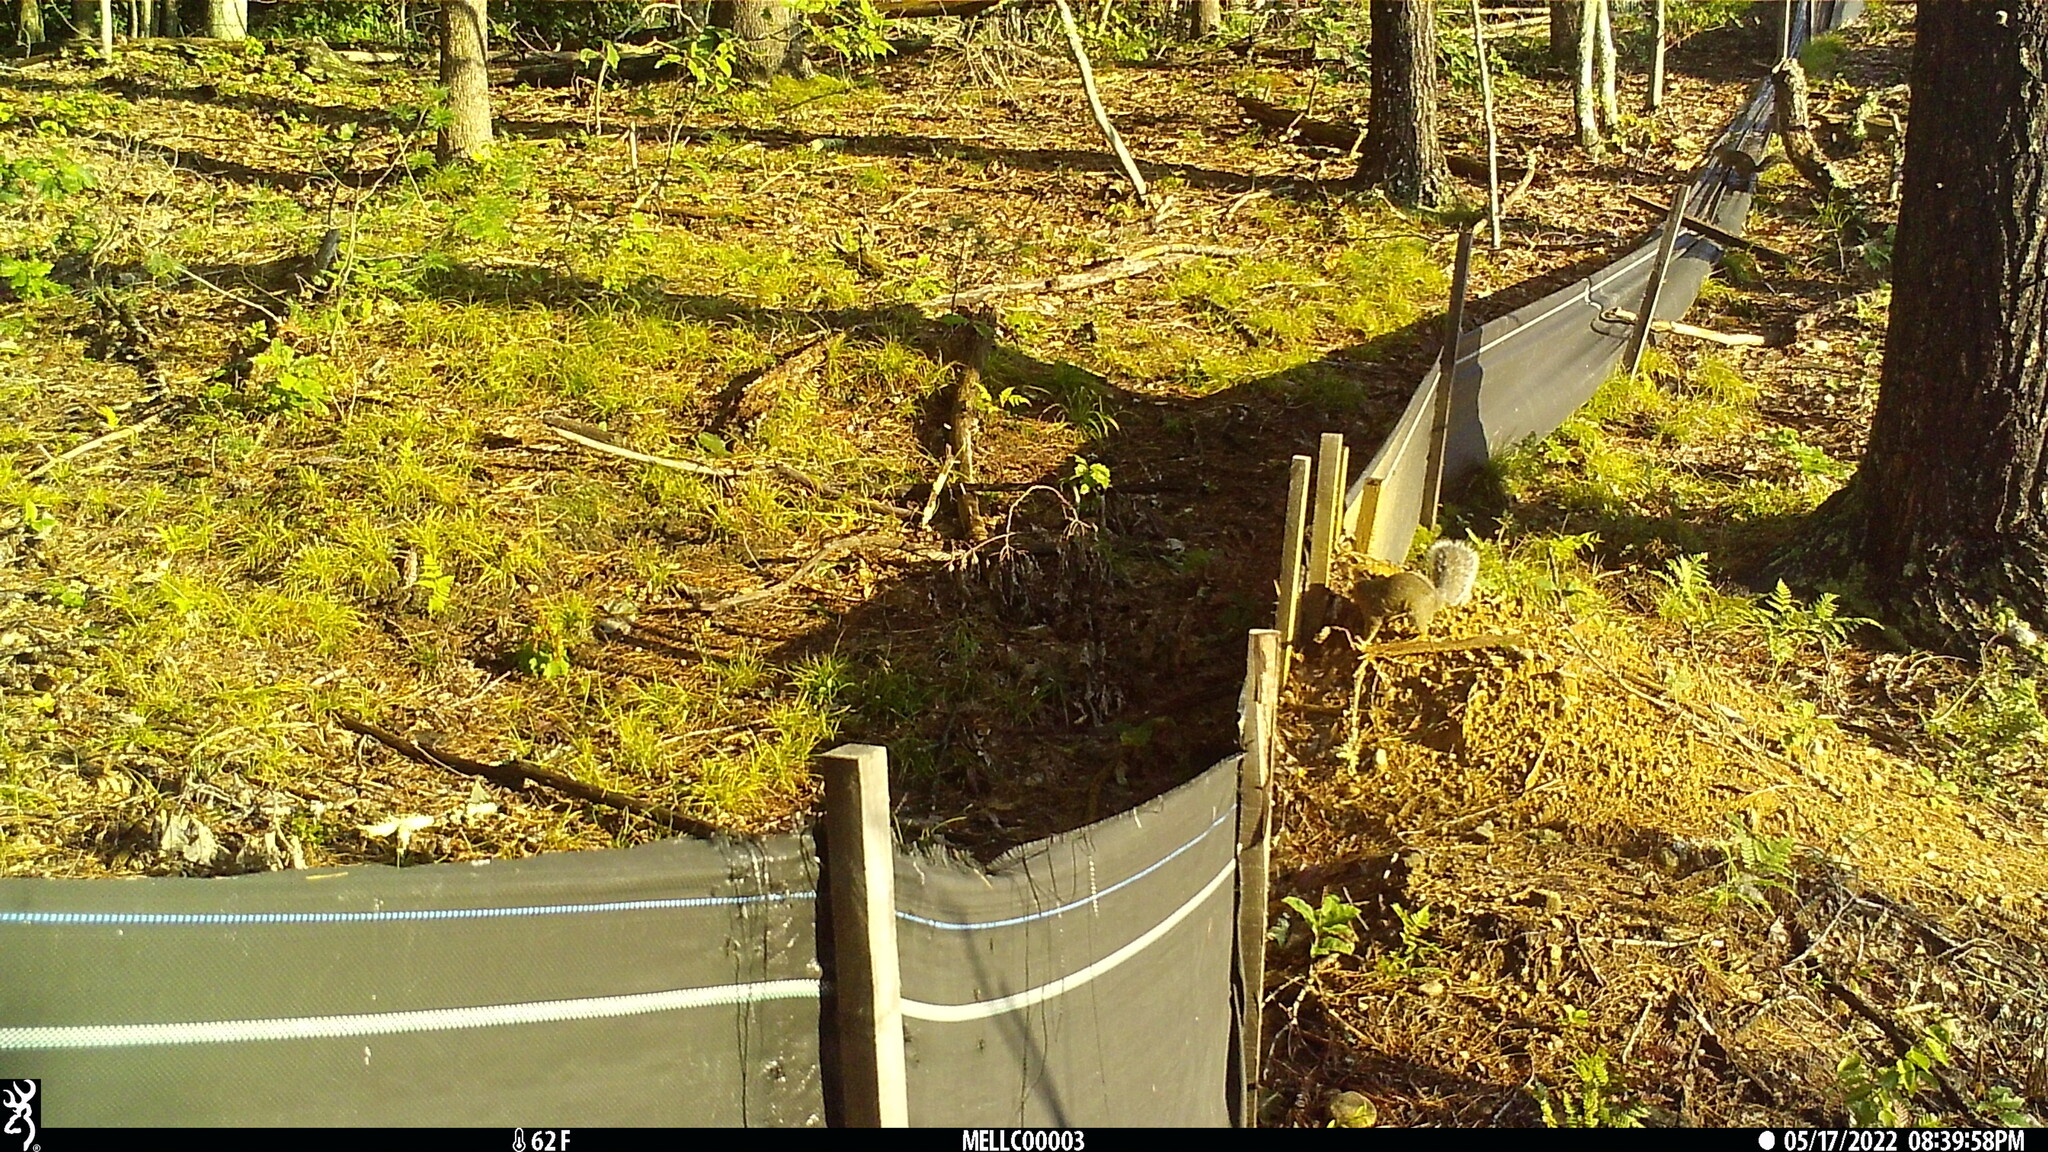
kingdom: Animalia
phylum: Chordata
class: Mammalia
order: Rodentia
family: Sciuridae
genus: Sciurus
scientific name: Sciurus carolinensis
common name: Eastern gray squirrel
